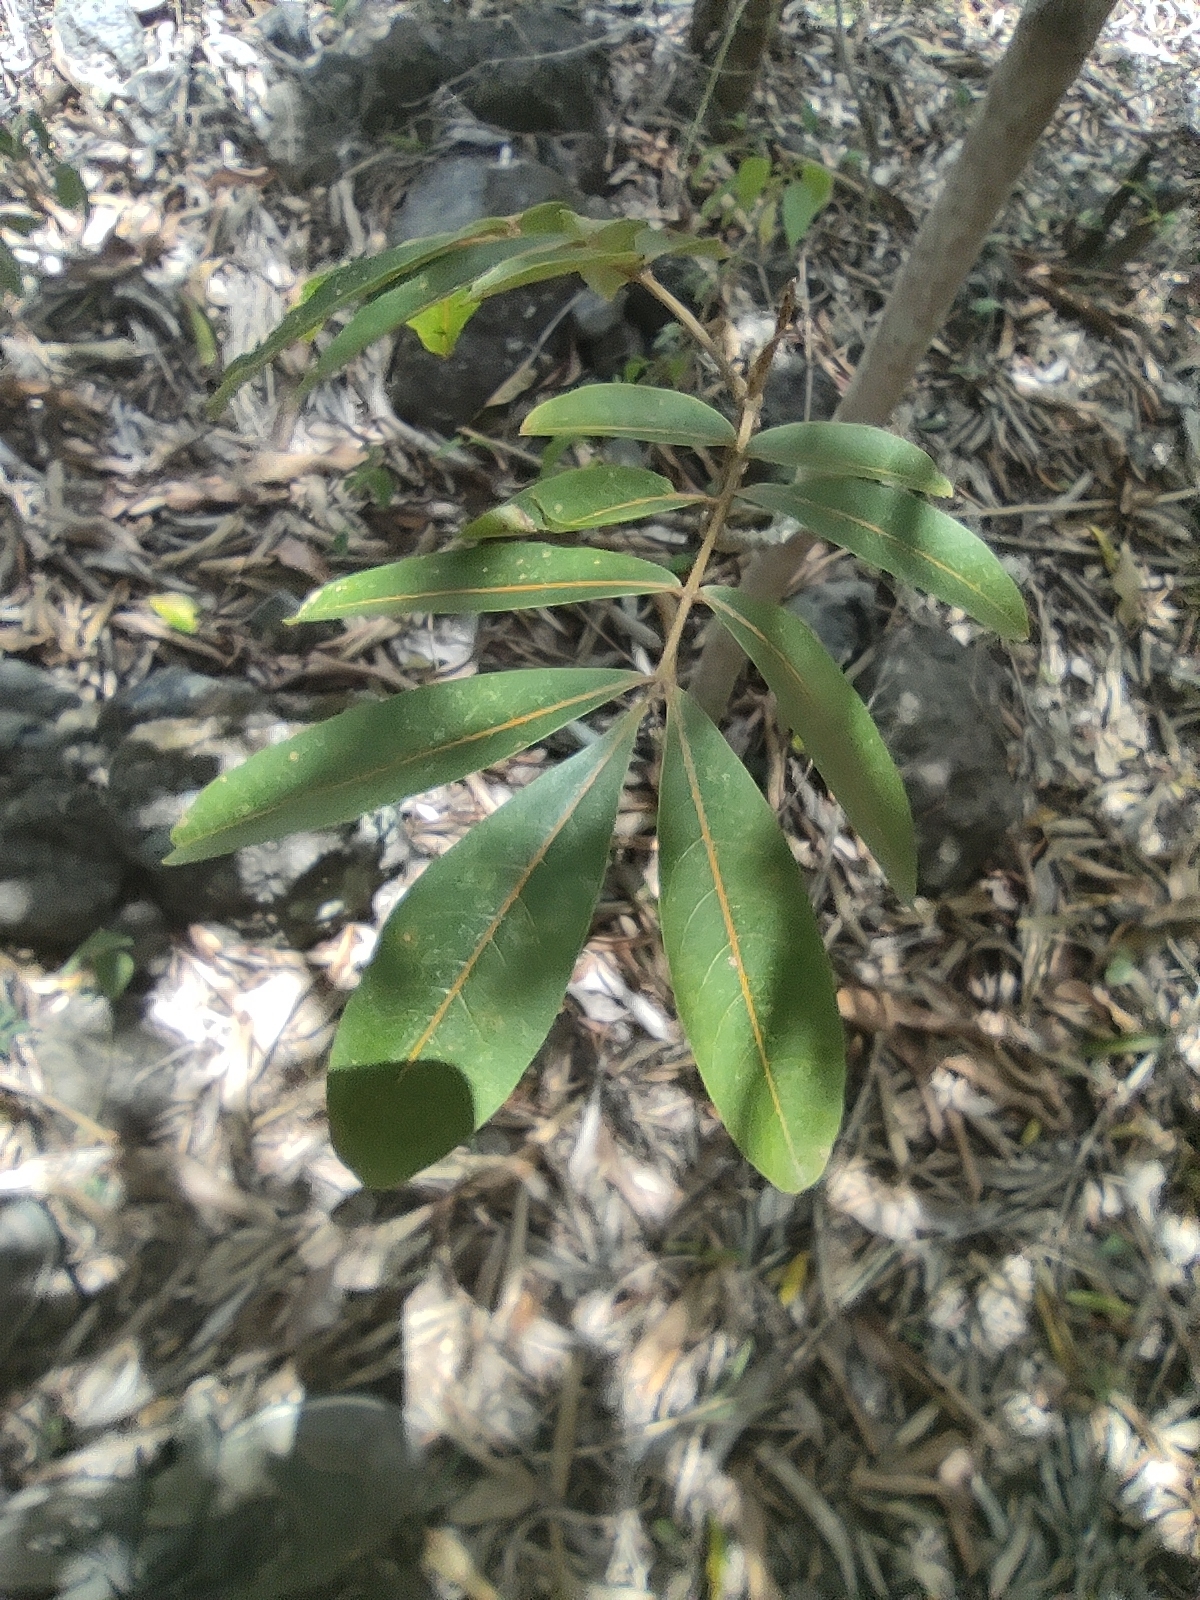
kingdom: Plantae
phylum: Tracheophyta
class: Magnoliopsida
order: Sapindales
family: Sapindaceae
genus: Cossinia
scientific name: Cossinia pinnata
